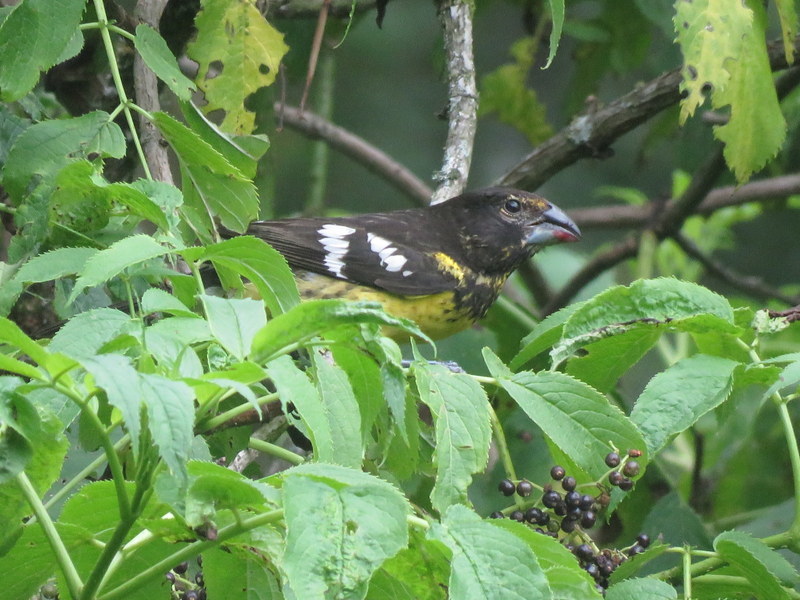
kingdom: Animalia
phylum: Chordata
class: Aves
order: Passeriformes
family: Cardinalidae
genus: Pheucticus
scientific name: Pheucticus aureoventris
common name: Black-backed grosbeak
